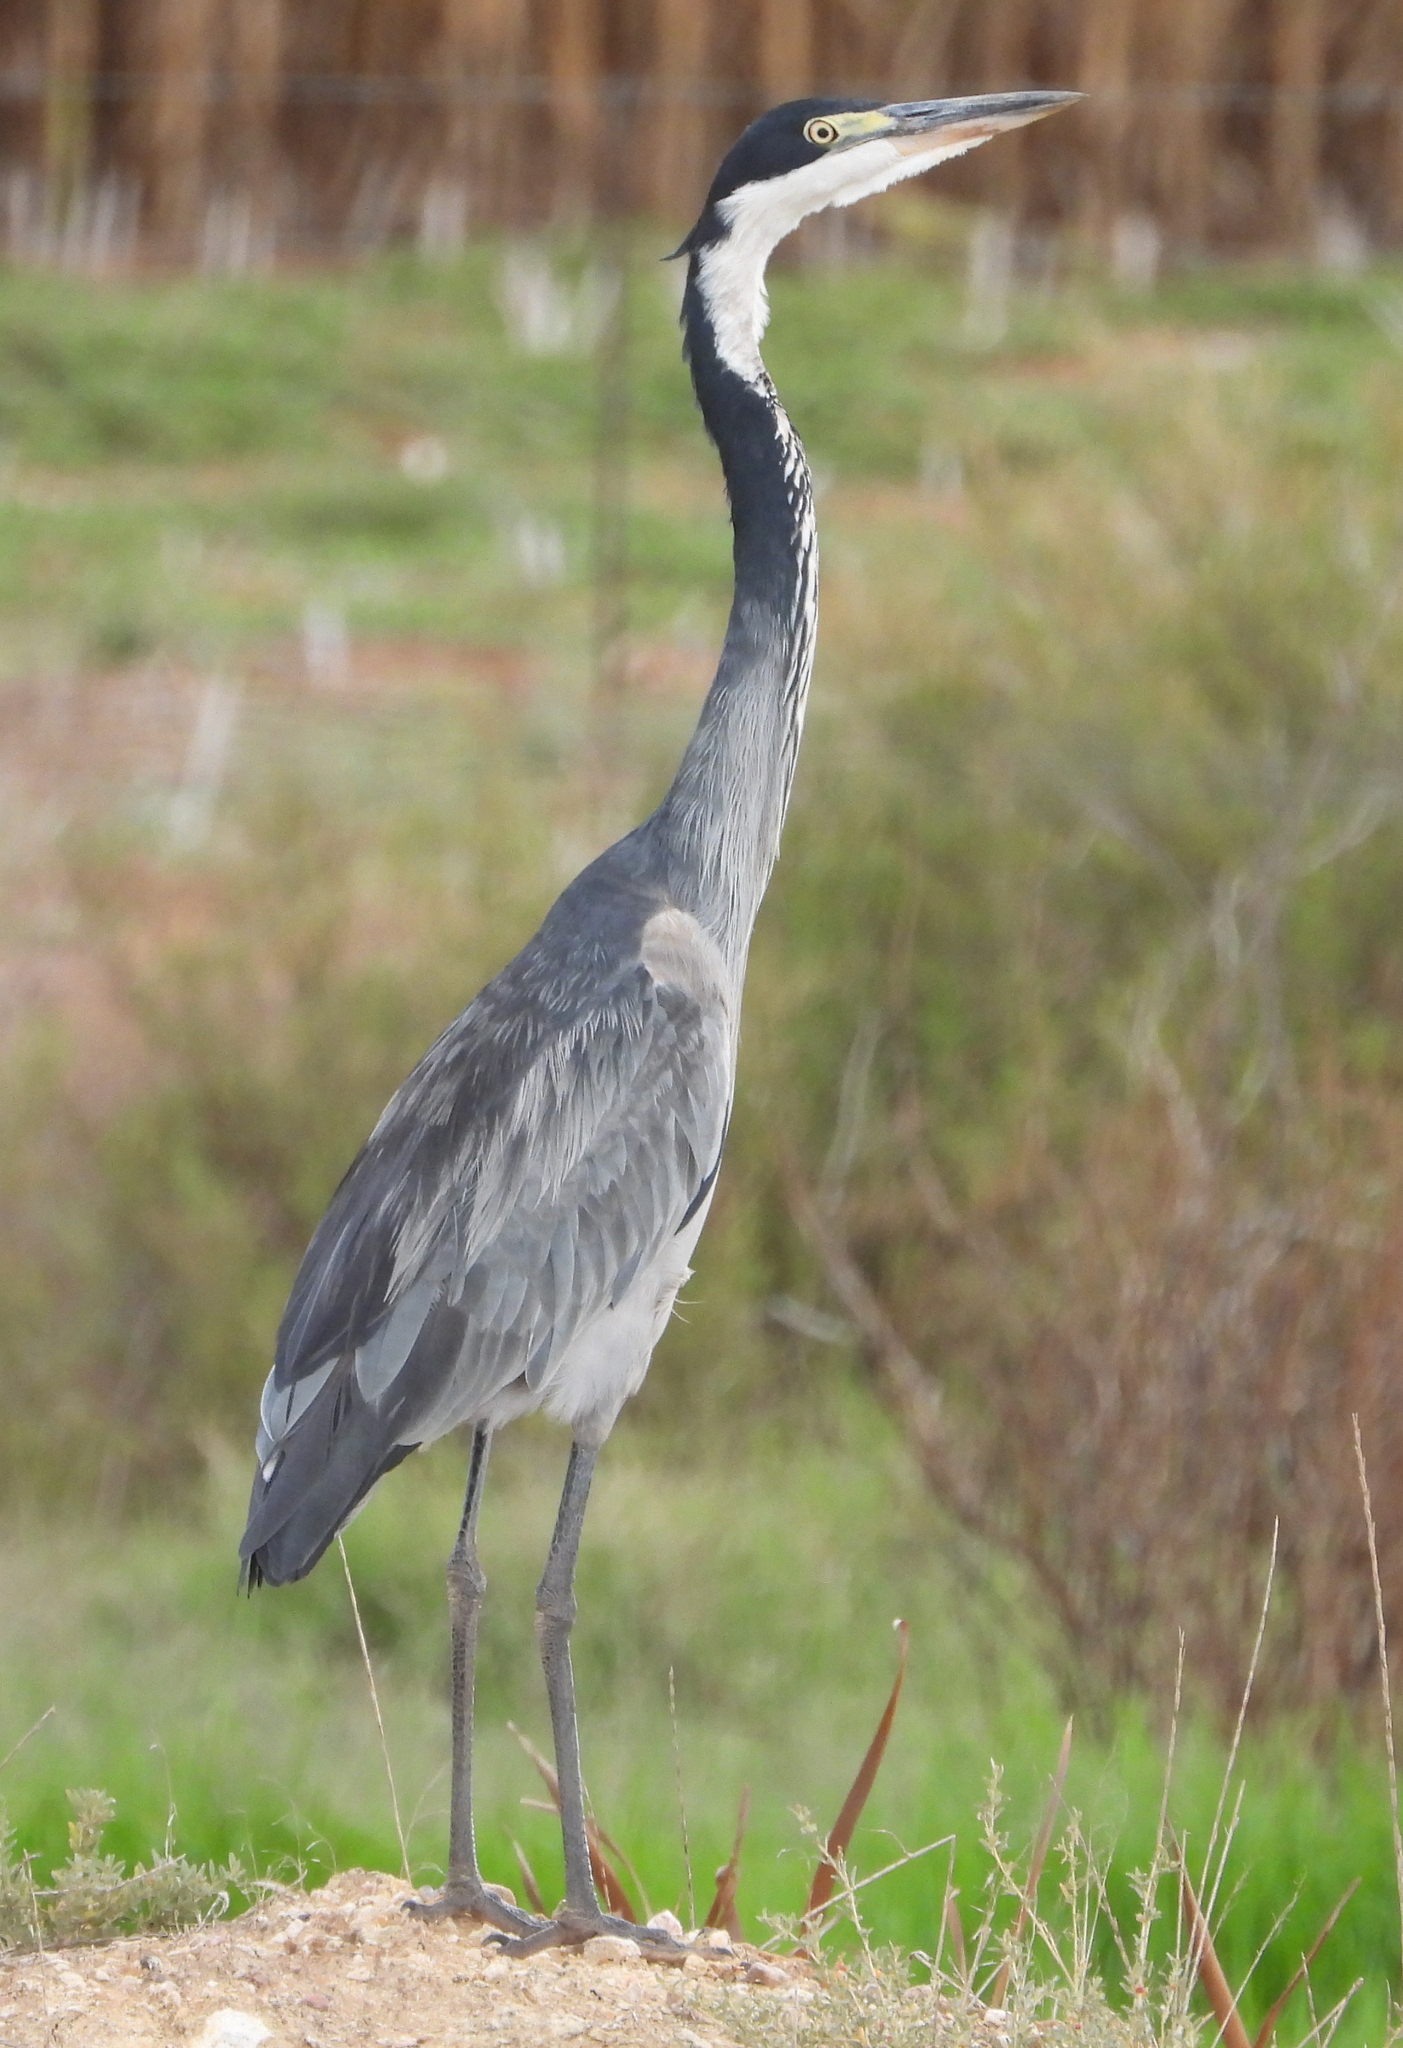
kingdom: Animalia
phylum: Chordata
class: Aves
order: Pelecaniformes
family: Ardeidae
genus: Ardea
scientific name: Ardea melanocephala
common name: Black-headed heron
